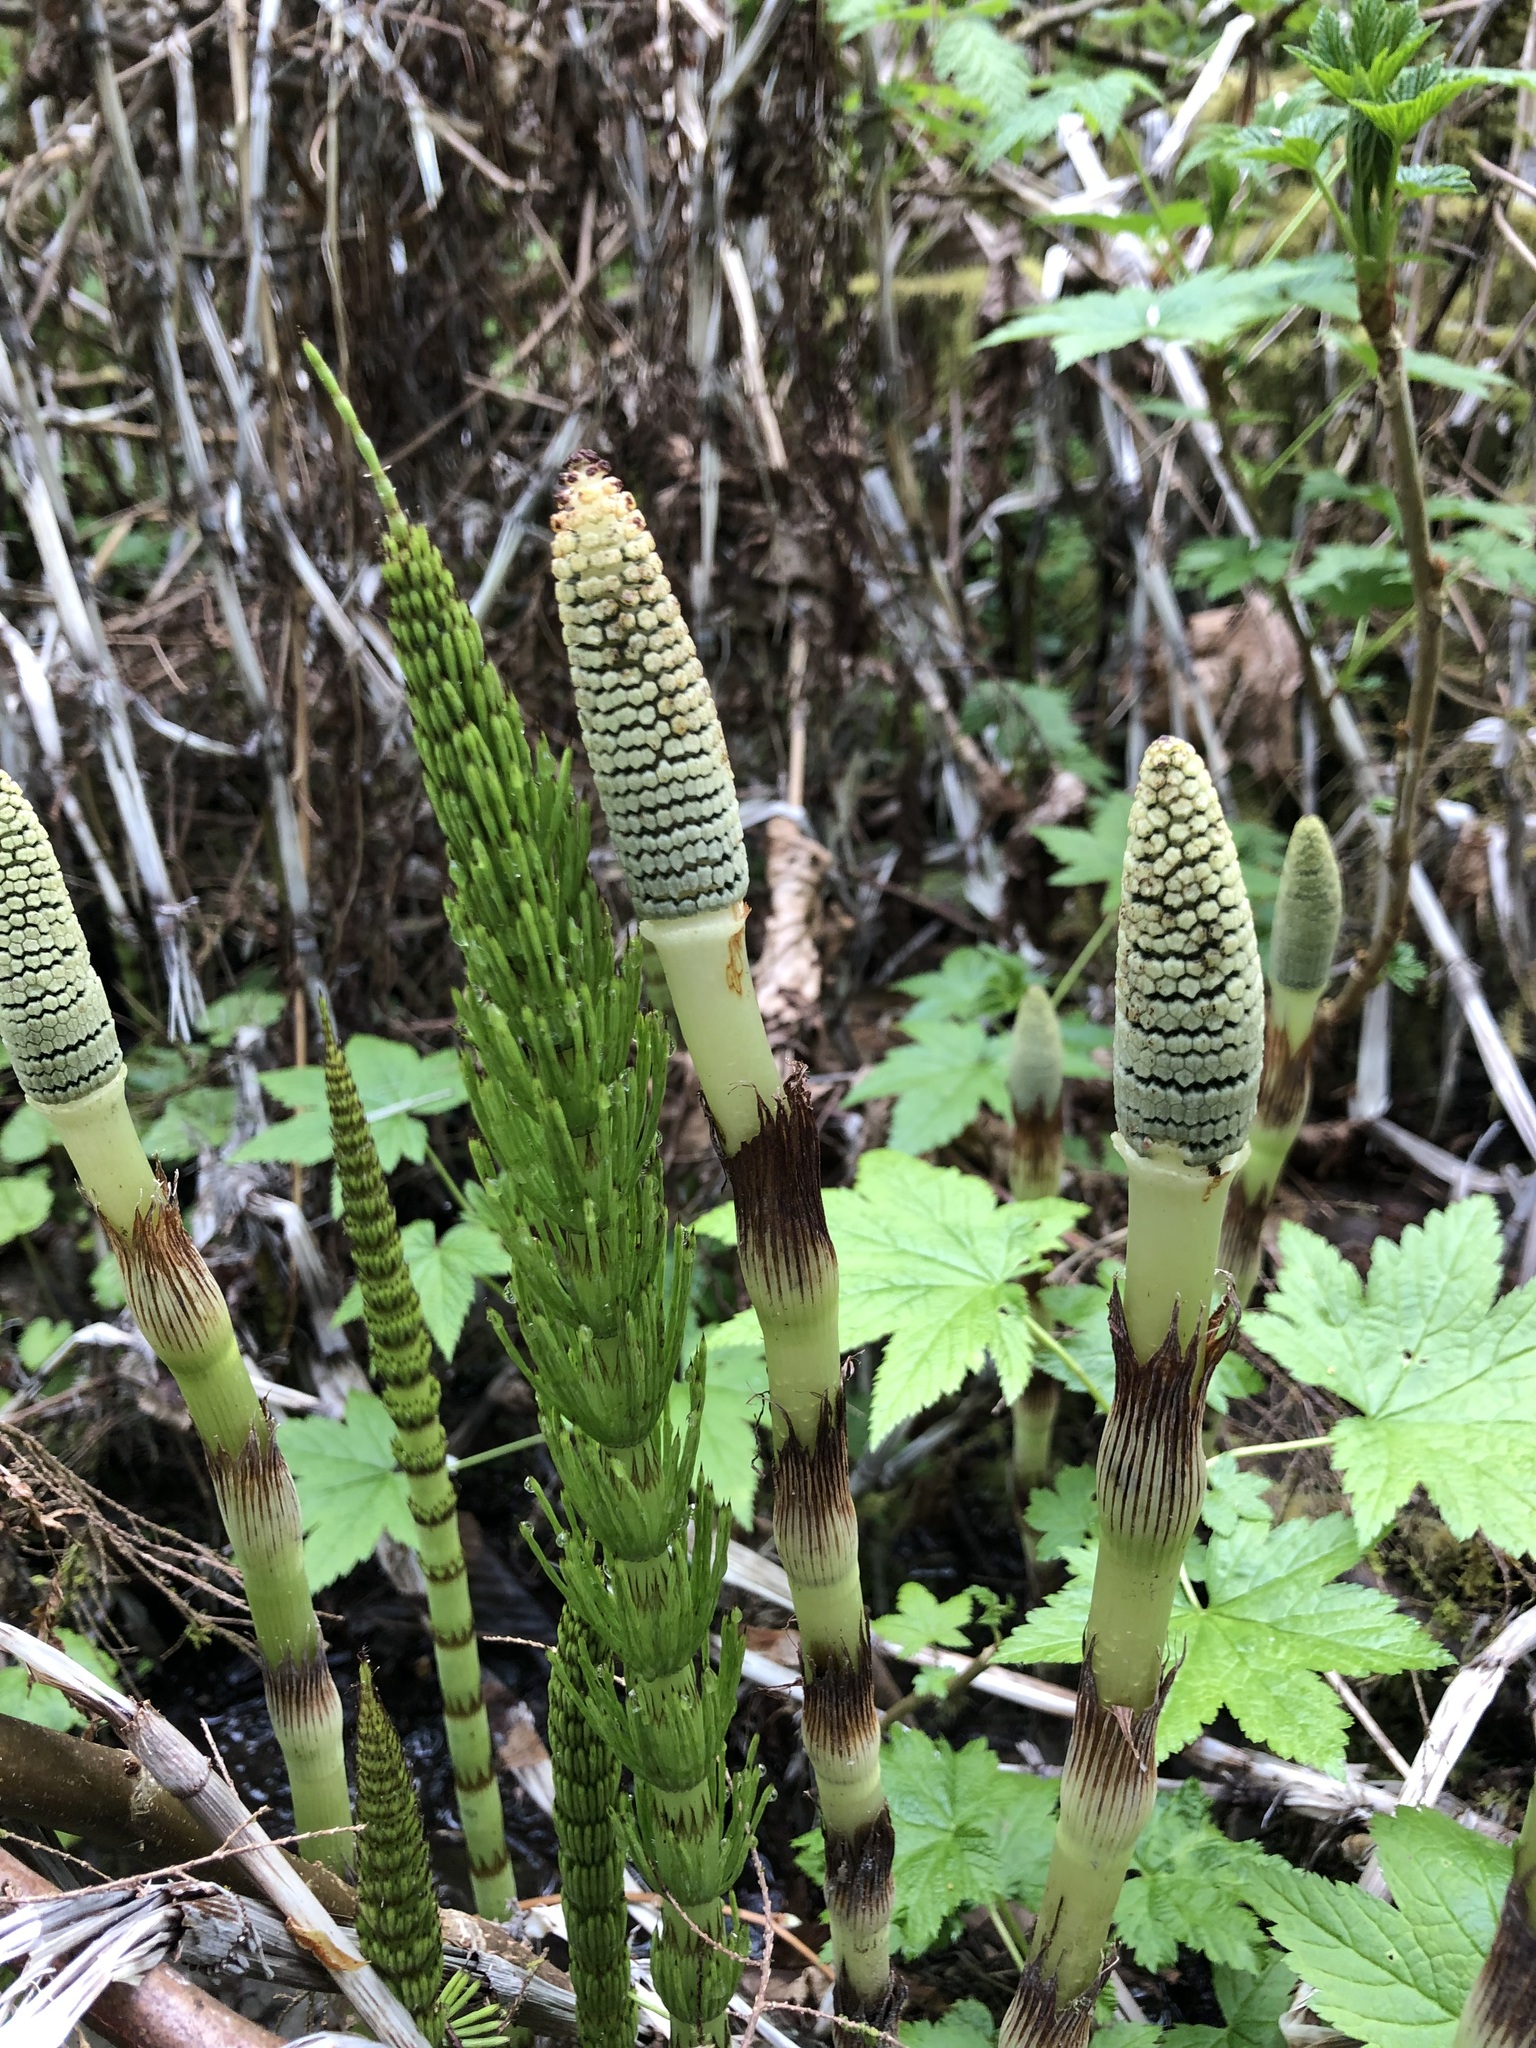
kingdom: Plantae
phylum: Tracheophyta
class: Polypodiopsida
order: Equisetales
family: Equisetaceae
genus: Equisetum
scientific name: Equisetum braunii
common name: Braun's horsetail
